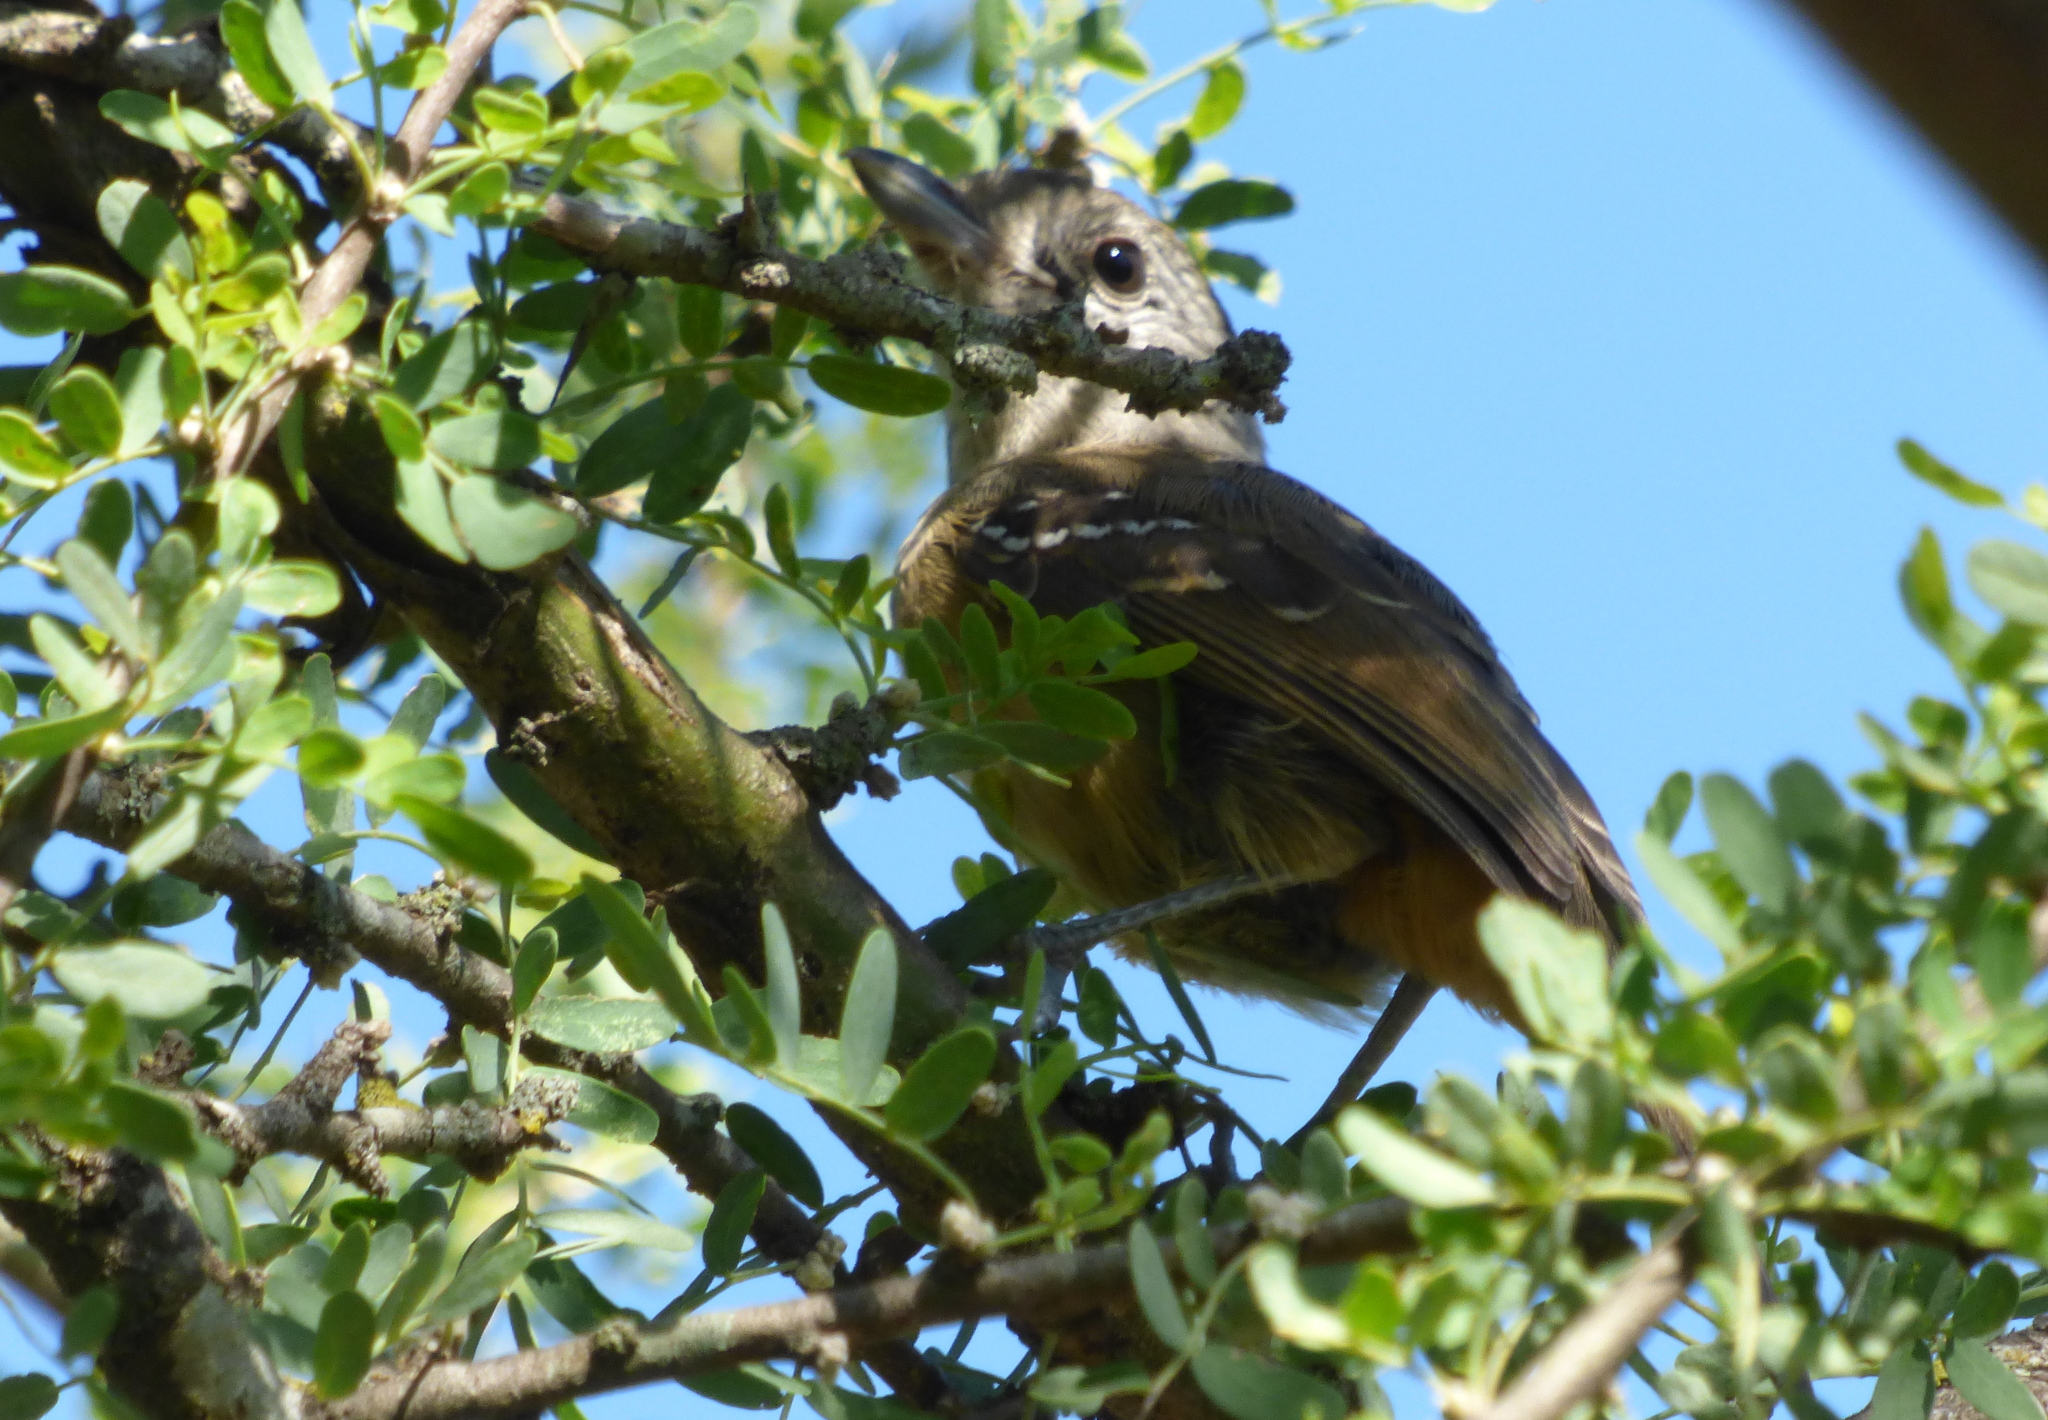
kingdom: Animalia
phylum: Chordata
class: Aves
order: Passeriformes
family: Thamnophilidae
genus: Thamnophilus
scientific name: Thamnophilus caerulescens
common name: Variable antshrike
